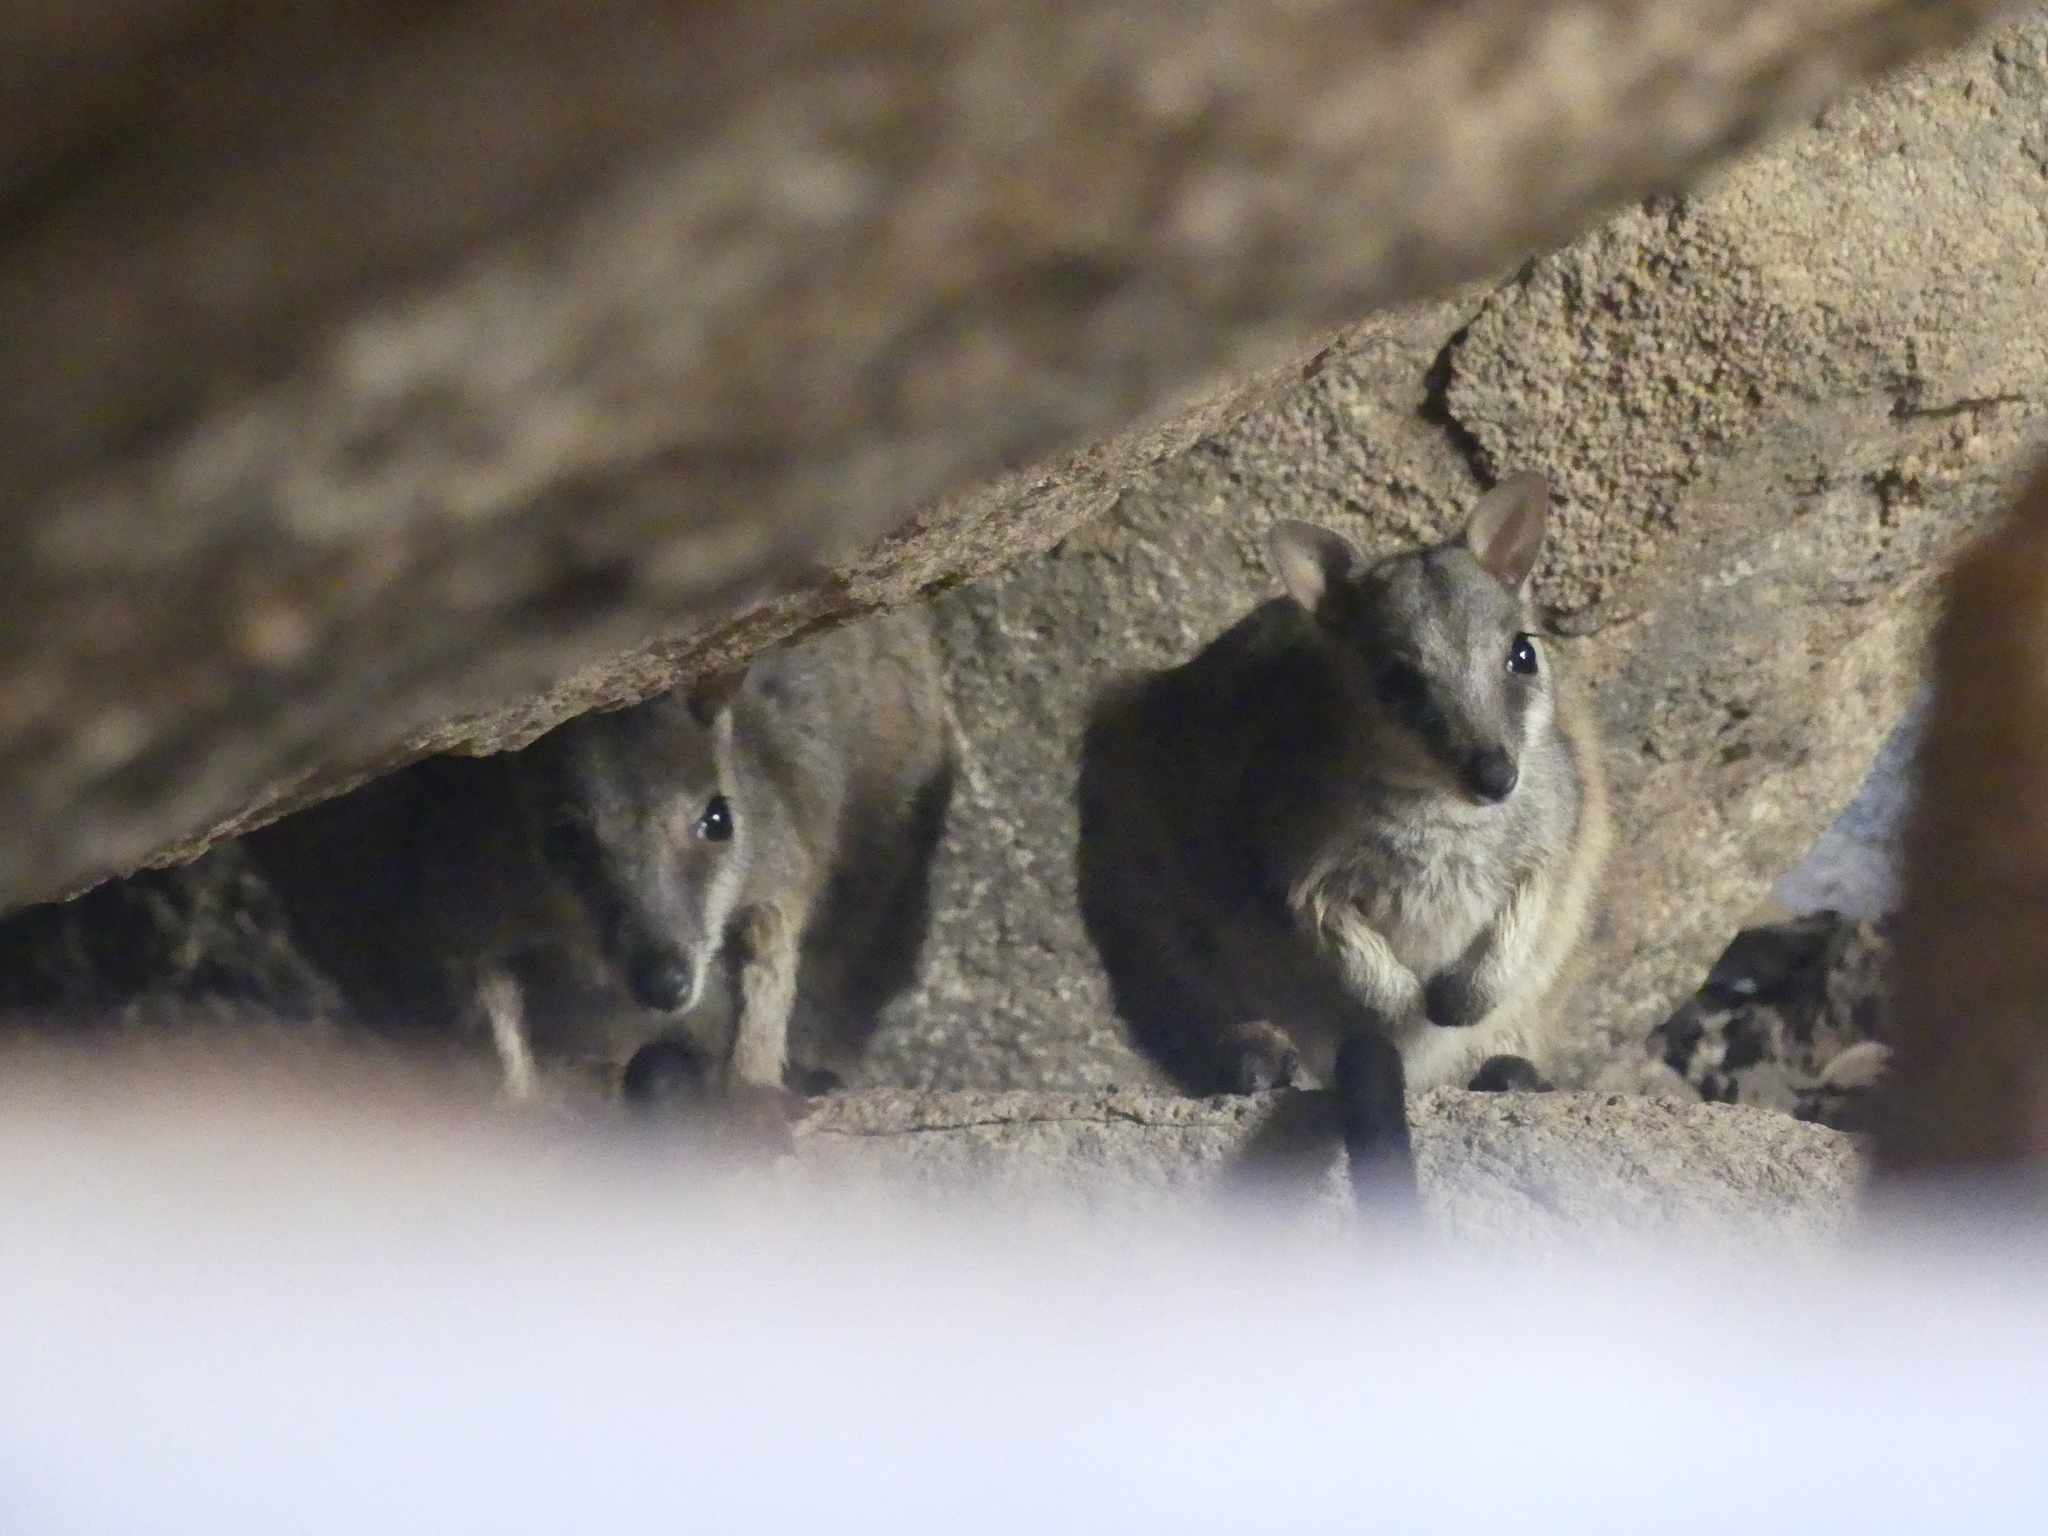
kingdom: Animalia
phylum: Chordata
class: Mammalia
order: Diprotodontia
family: Macropodidae
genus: Petrogale
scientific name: Petrogale assimilis
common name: Allied rock wallaby
